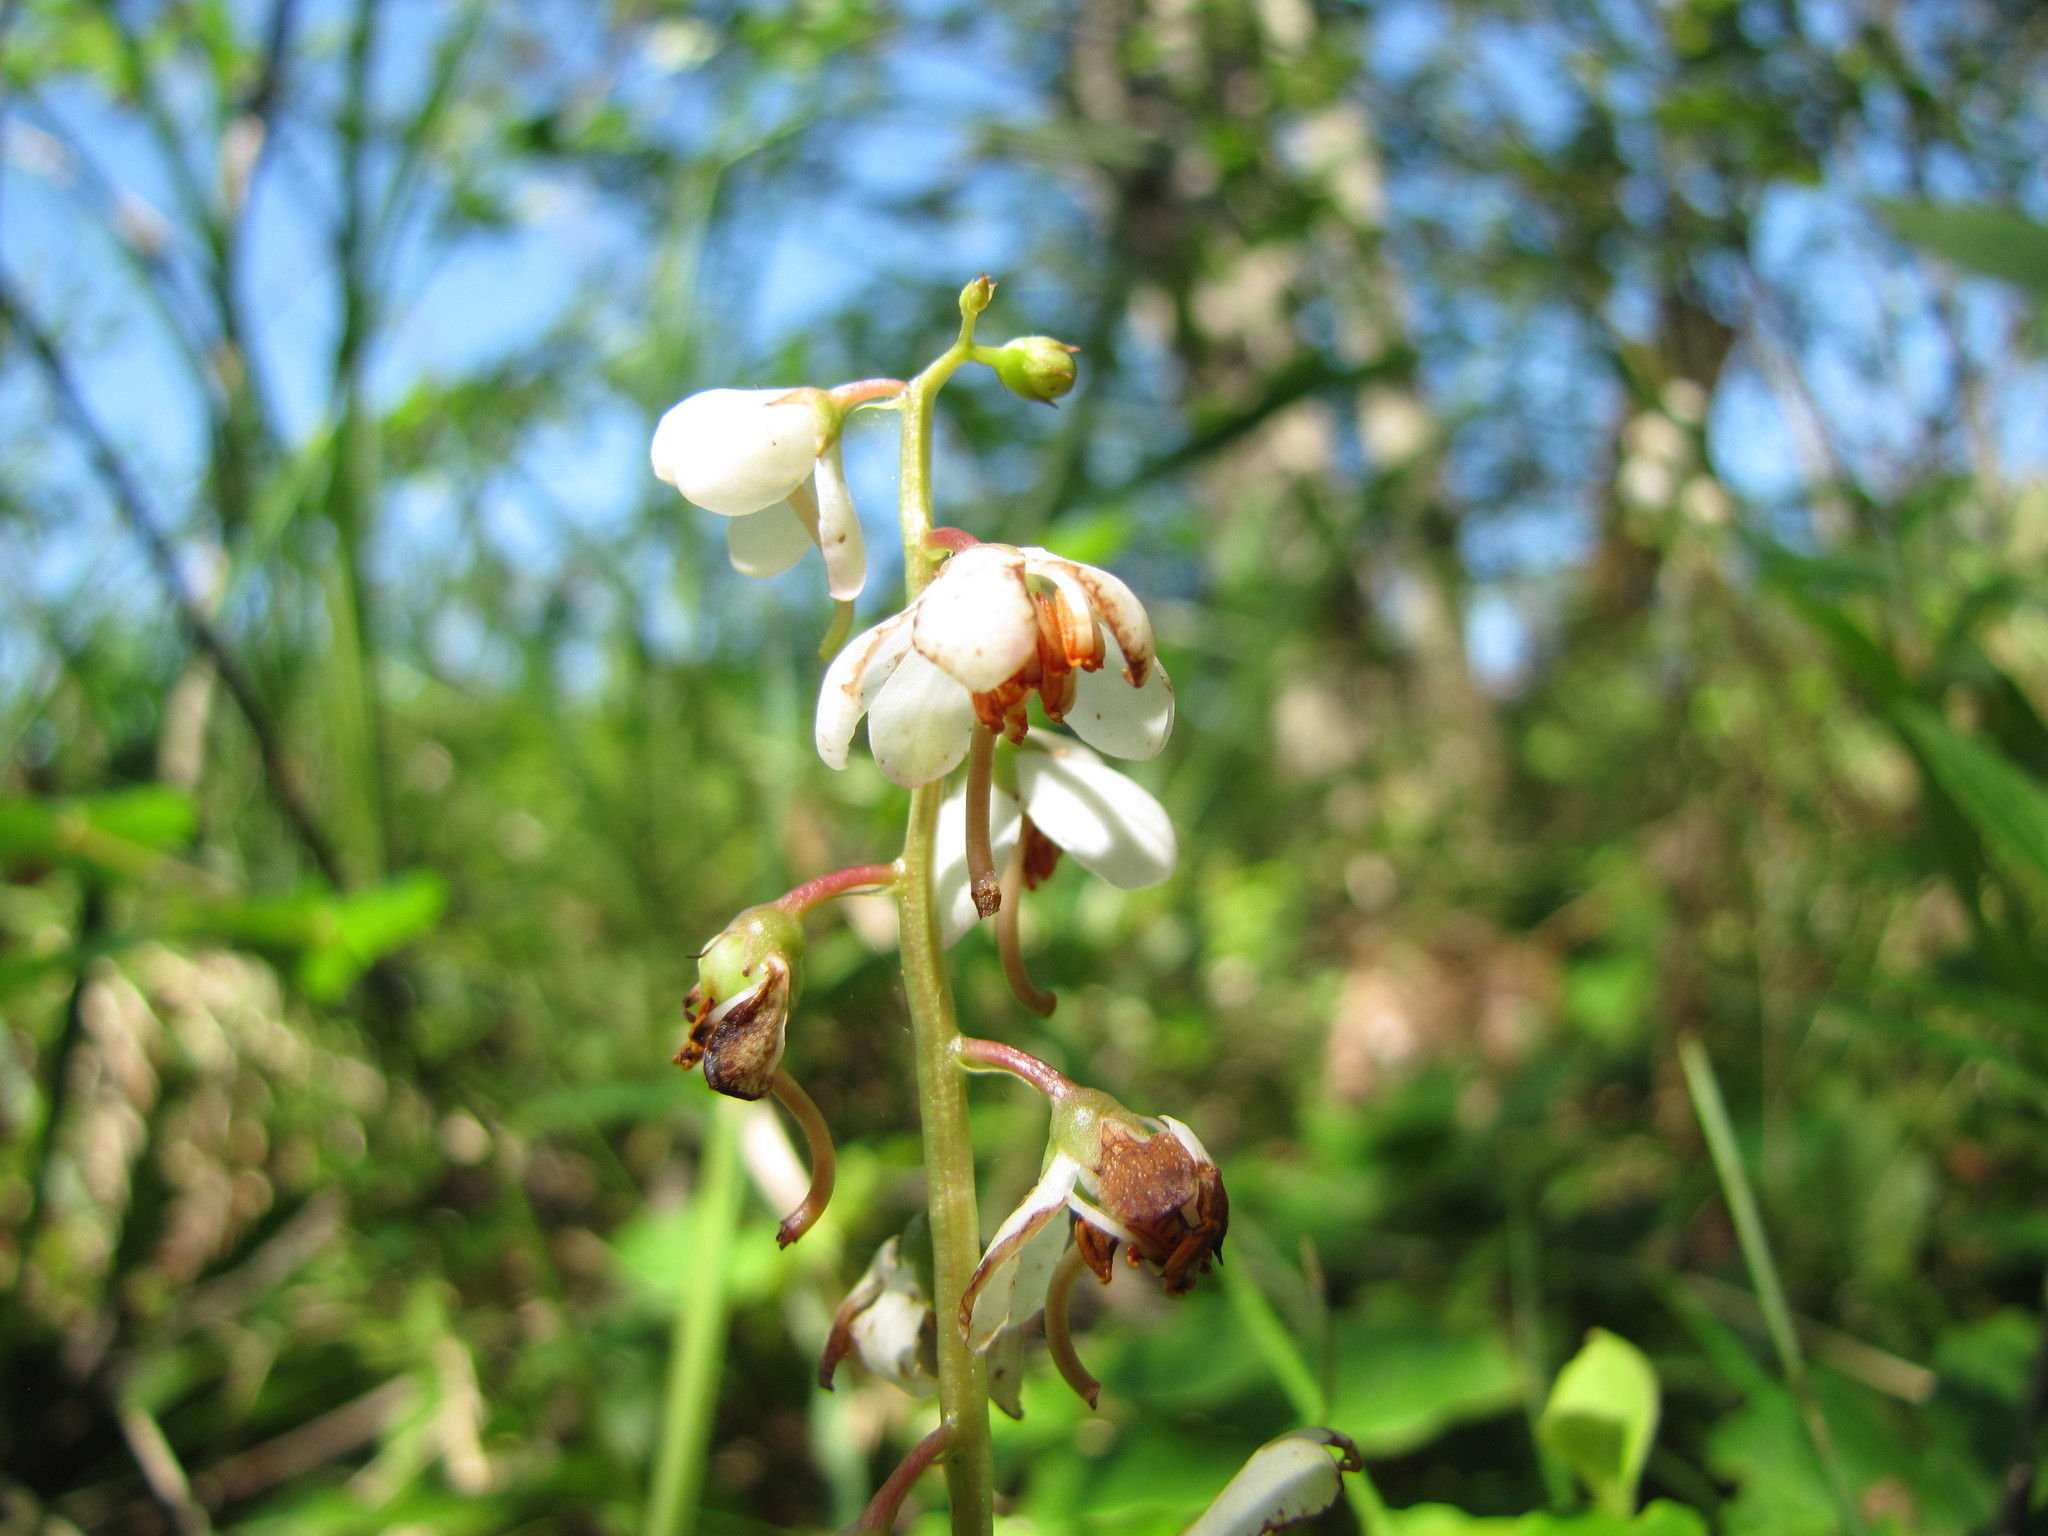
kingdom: Plantae
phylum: Tracheophyta
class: Magnoliopsida
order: Ericales
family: Ericaceae
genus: Pyrola
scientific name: Pyrola elliptica
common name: Shinleaf
